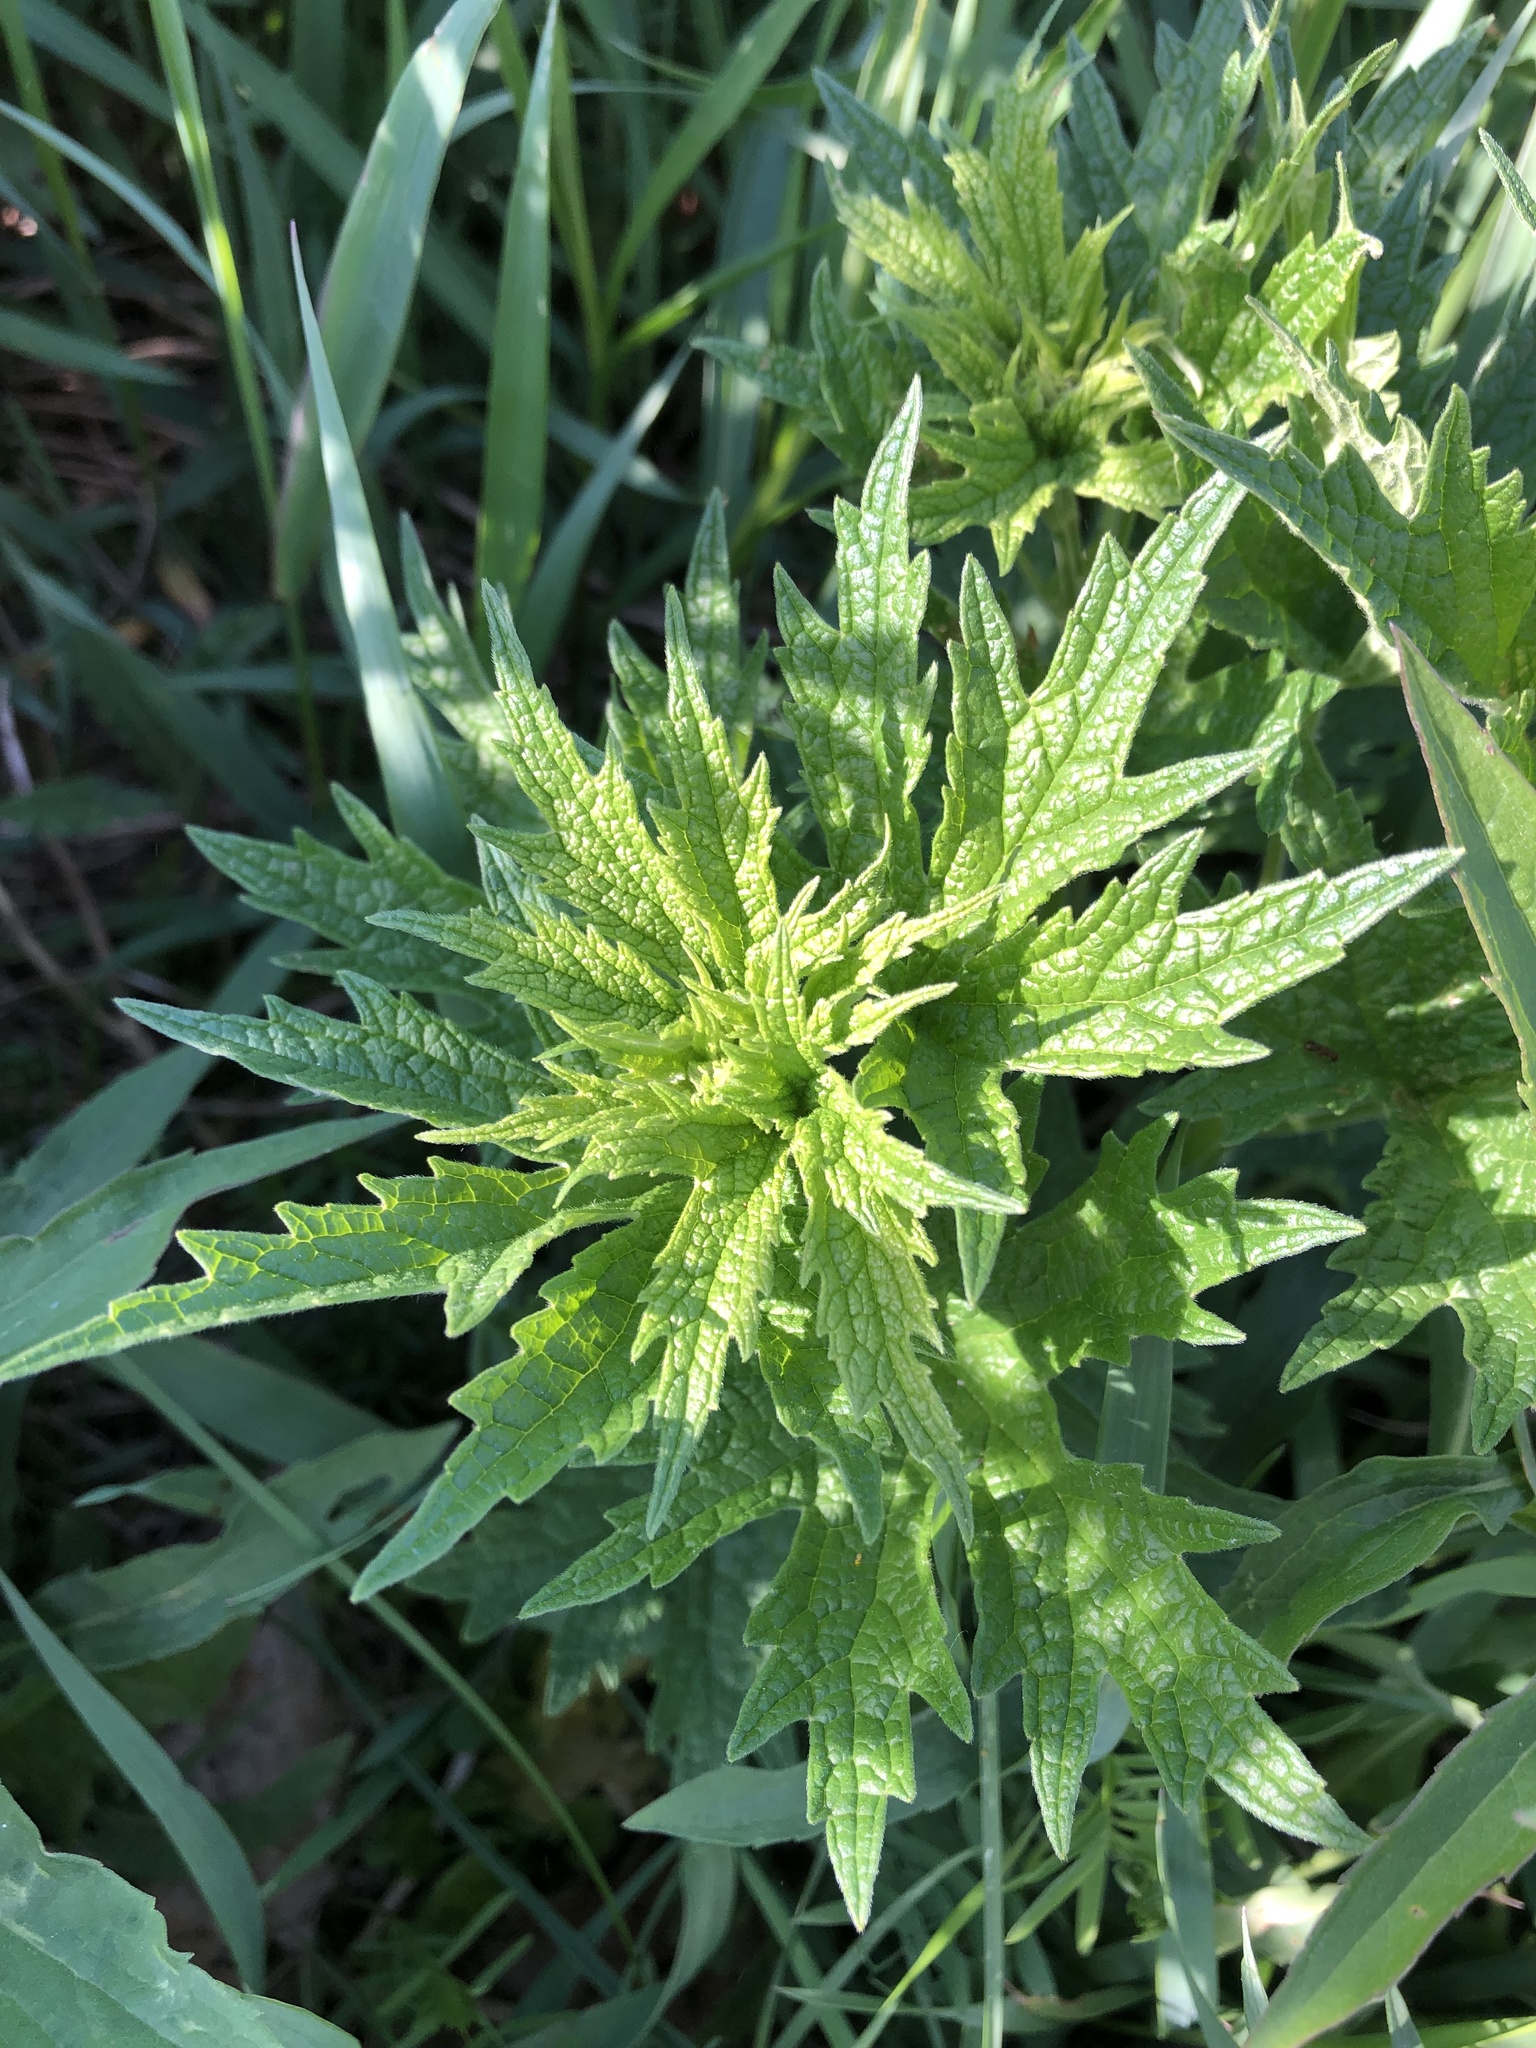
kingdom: Plantae
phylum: Tracheophyta
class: Magnoliopsida
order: Lamiales
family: Lamiaceae
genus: Leonurus
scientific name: Leonurus cardiaca
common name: Motherwort
